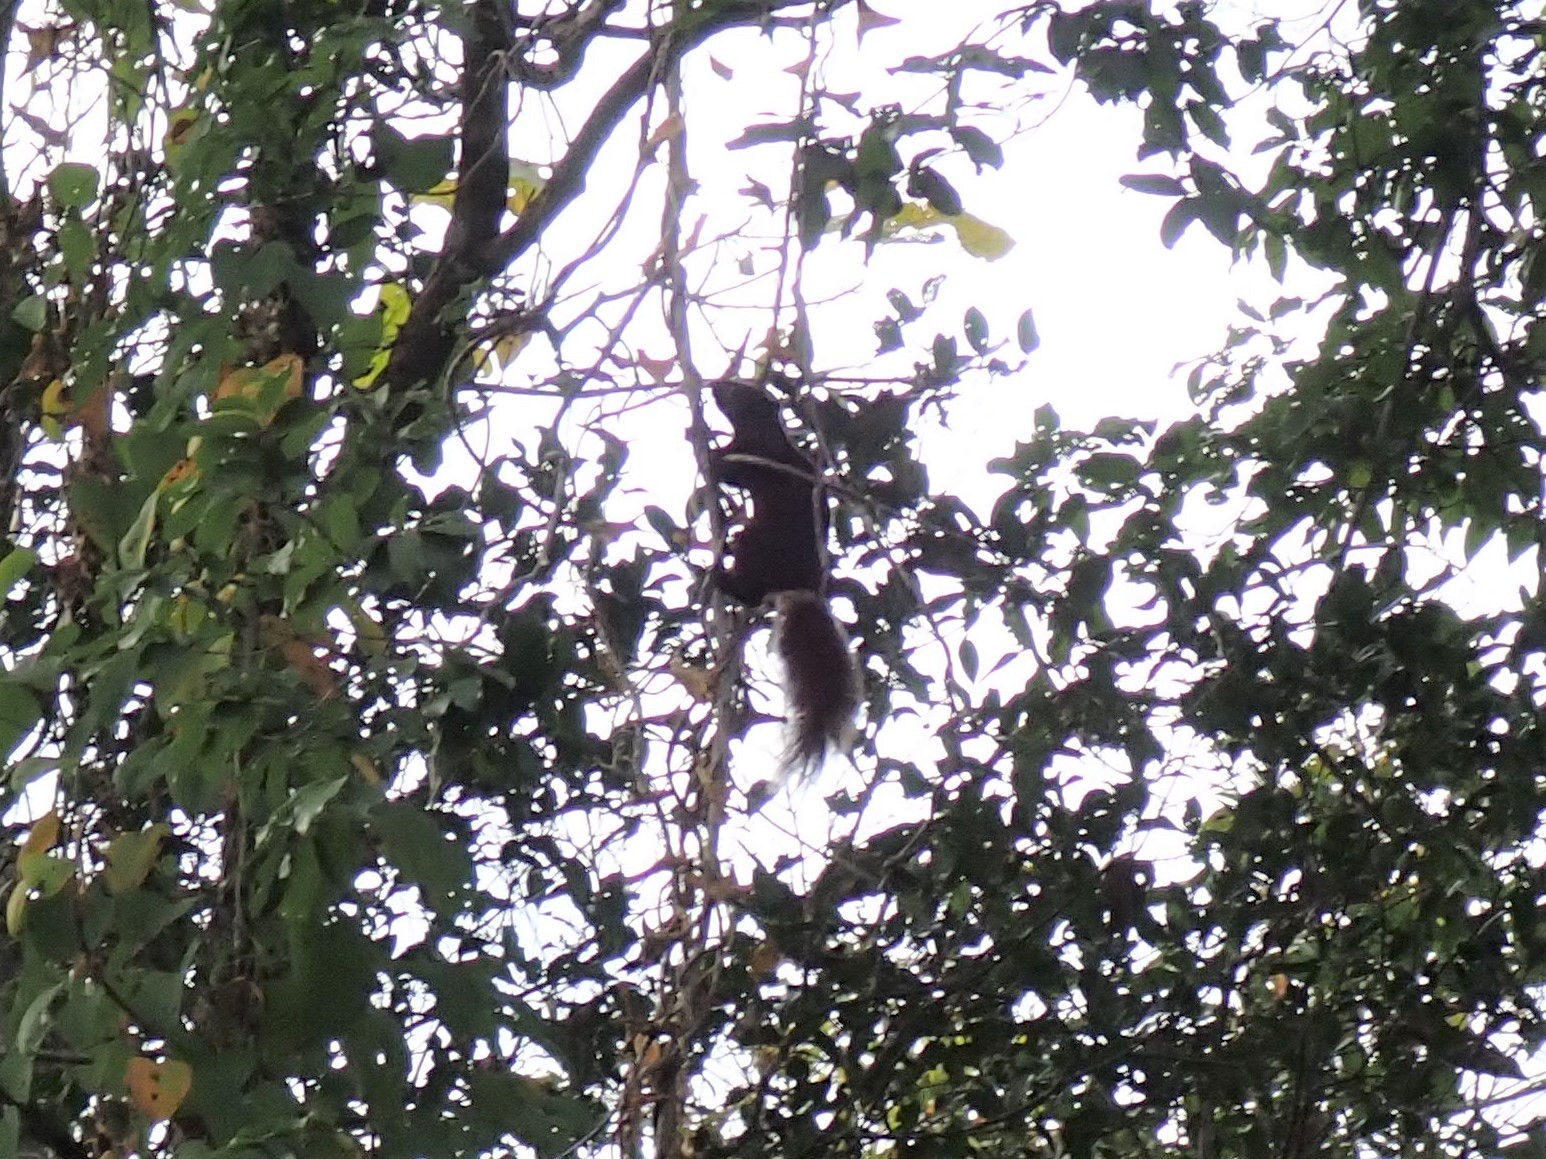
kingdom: Animalia
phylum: Chordata
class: Mammalia
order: Rodentia
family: Sciuridae
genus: Callosciurus
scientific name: Callosciurus finlaysonii
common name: Finlayson's squirrel
